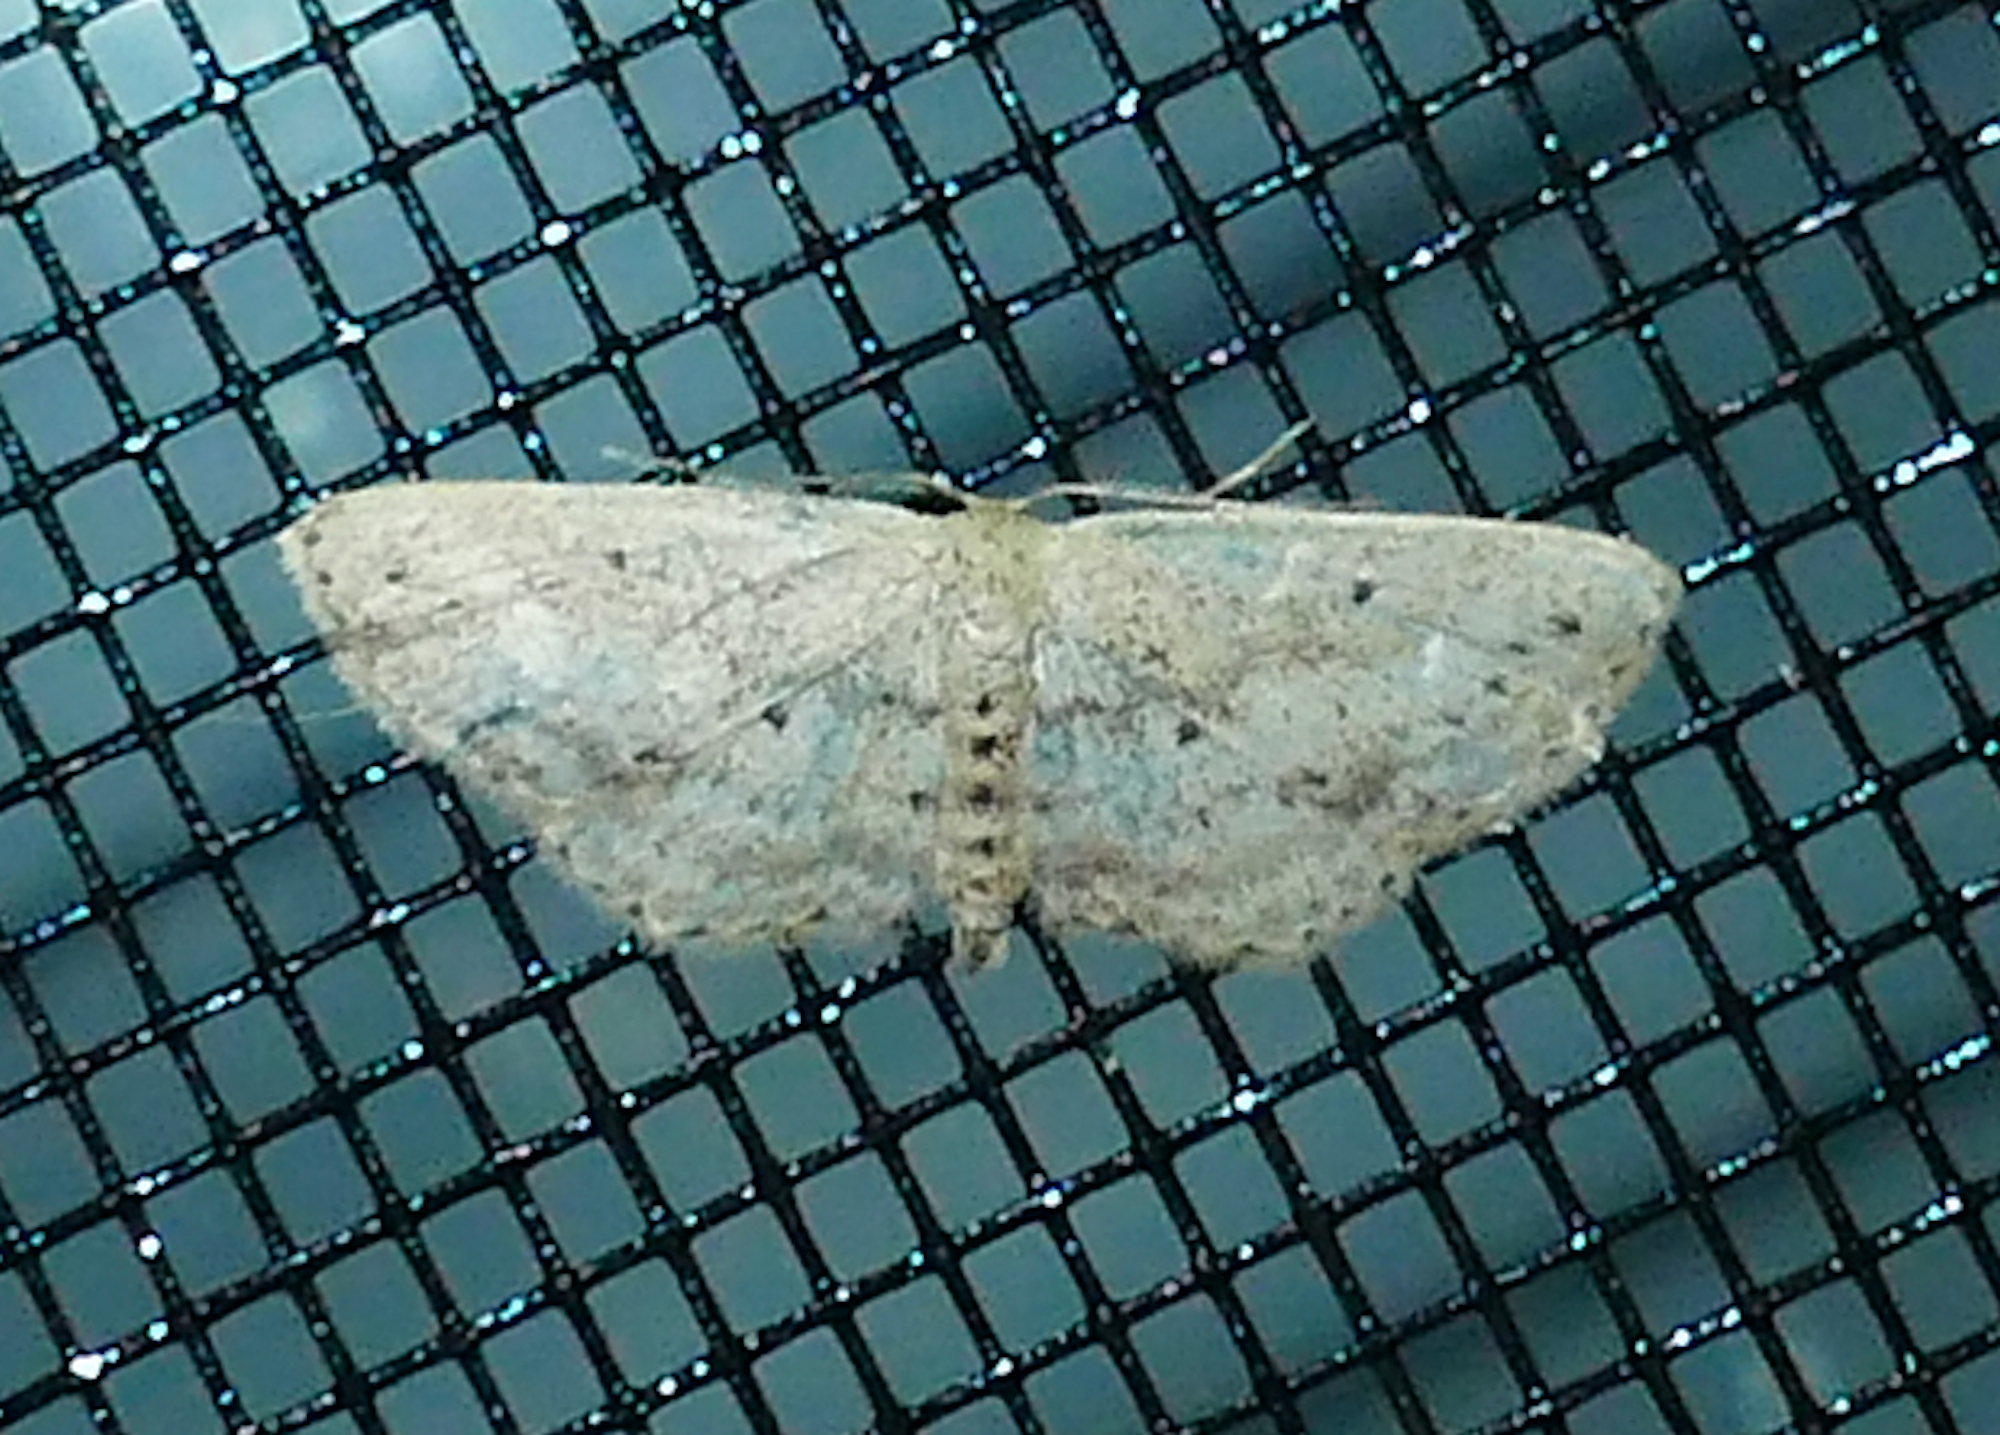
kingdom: Animalia
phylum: Arthropoda
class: Insecta
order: Lepidoptera
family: Geometridae
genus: Scopula
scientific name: Scopula aemulata
